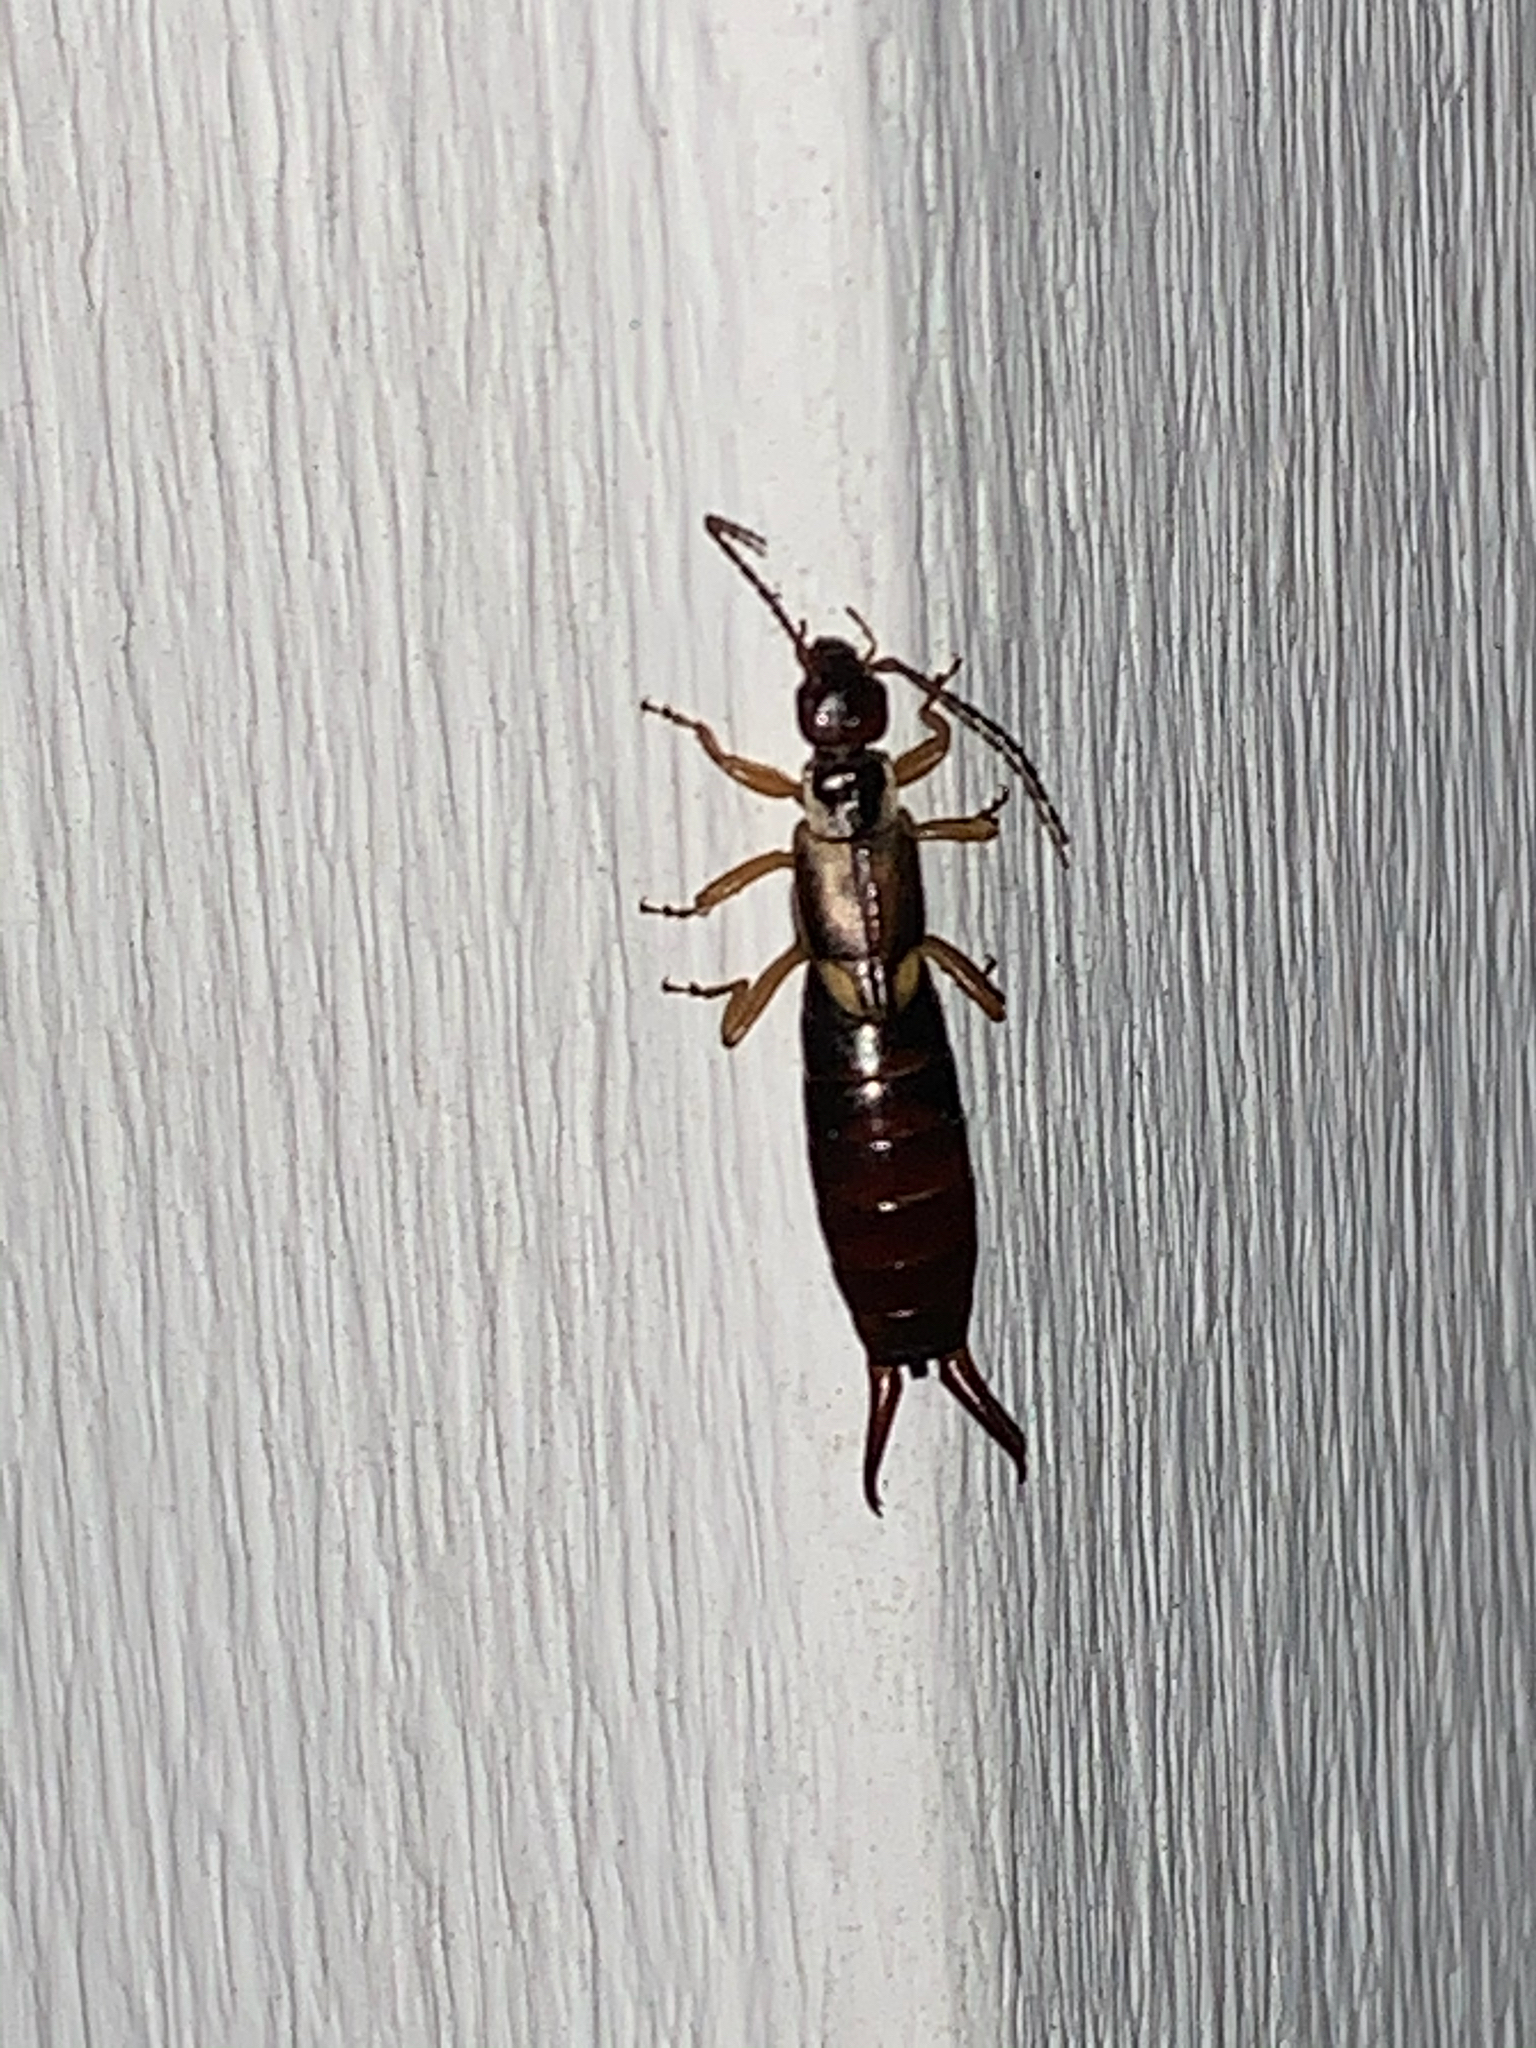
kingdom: Animalia
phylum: Arthropoda
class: Insecta
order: Dermaptera
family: Forficulidae
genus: Forficula
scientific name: Forficula
